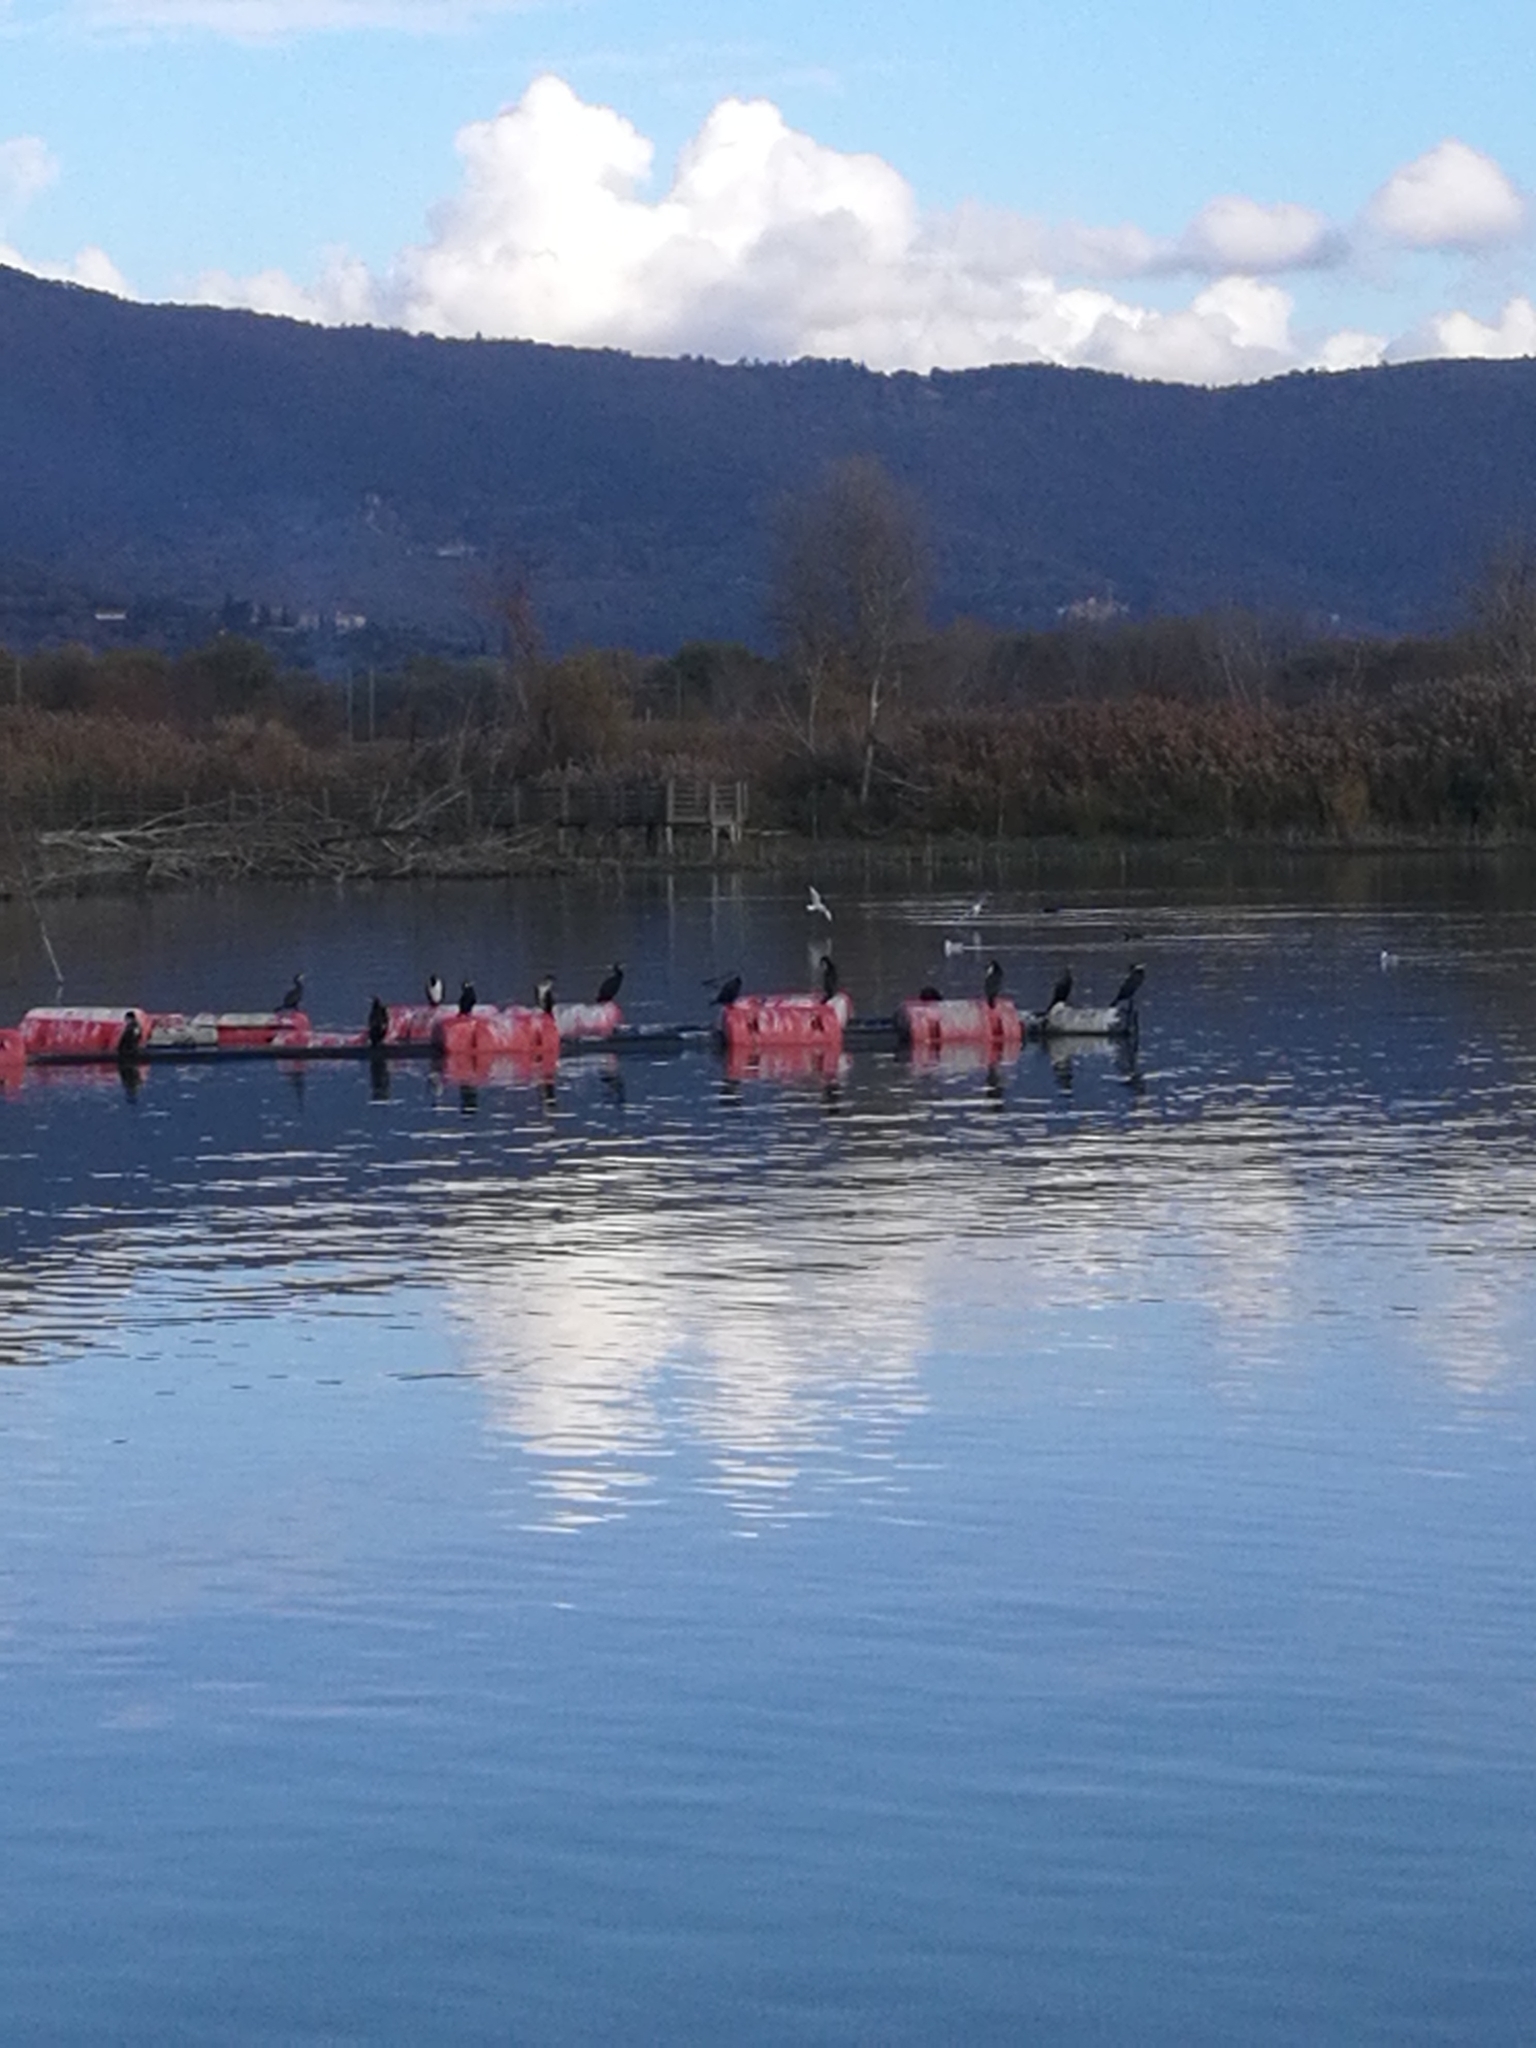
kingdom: Animalia
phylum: Chordata
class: Aves
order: Suliformes
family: Phalacrocoracidae
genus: Phalacrocorax
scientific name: Phalacrocorax carbo
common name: Great cormorant
